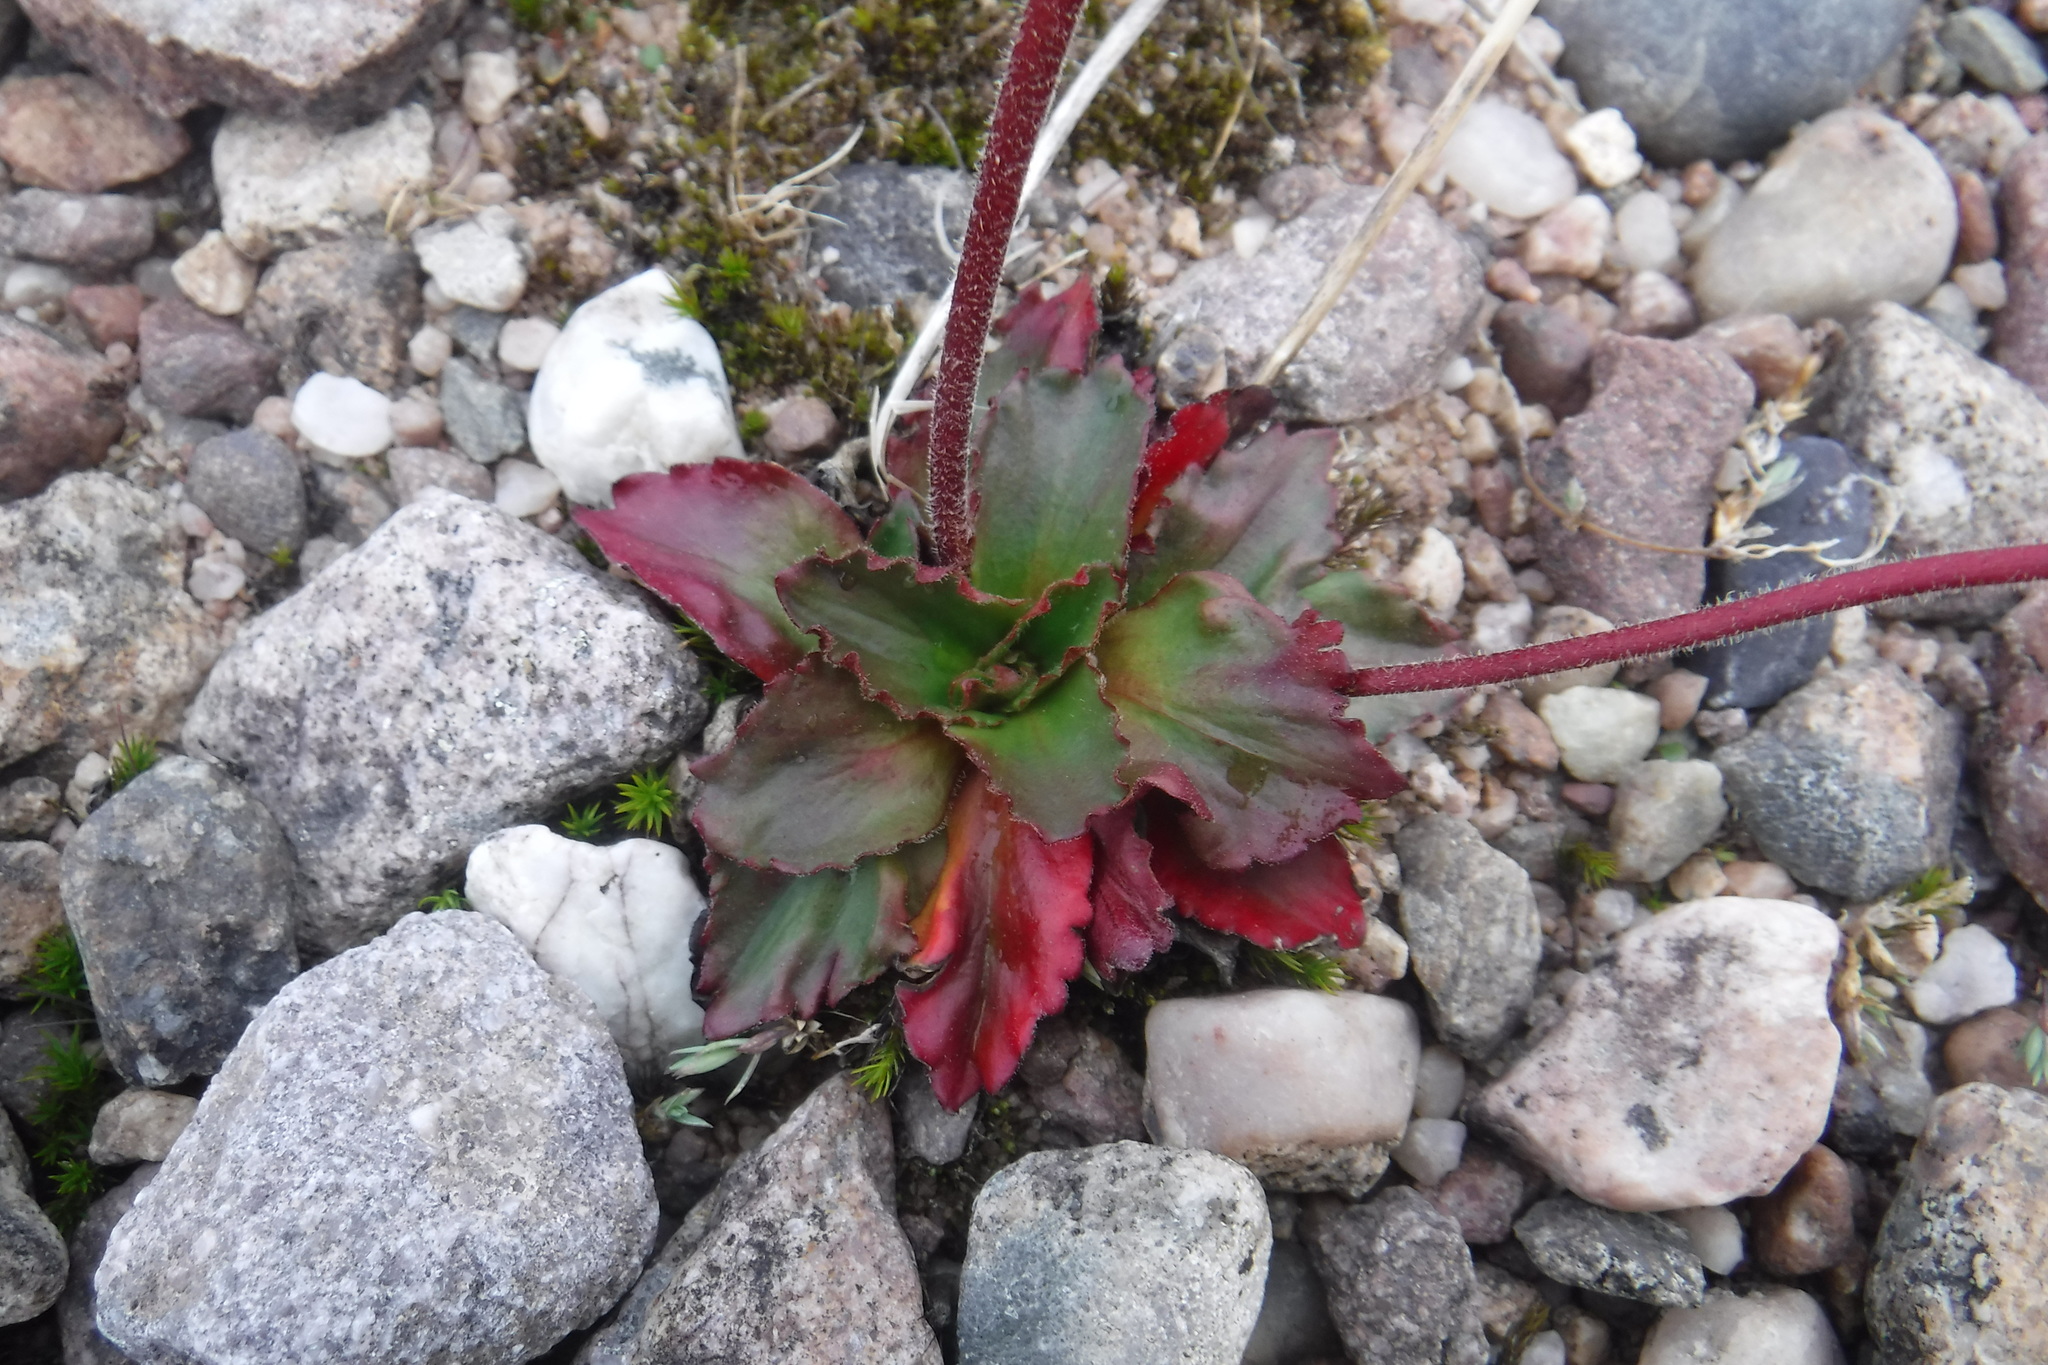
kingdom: Plantae
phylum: Tracheophyta
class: Magnoliopsida
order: Saxifragales
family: Saxifragaceae
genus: Micranthes
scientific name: Micranthes nivalis
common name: Alpine saxifrage
